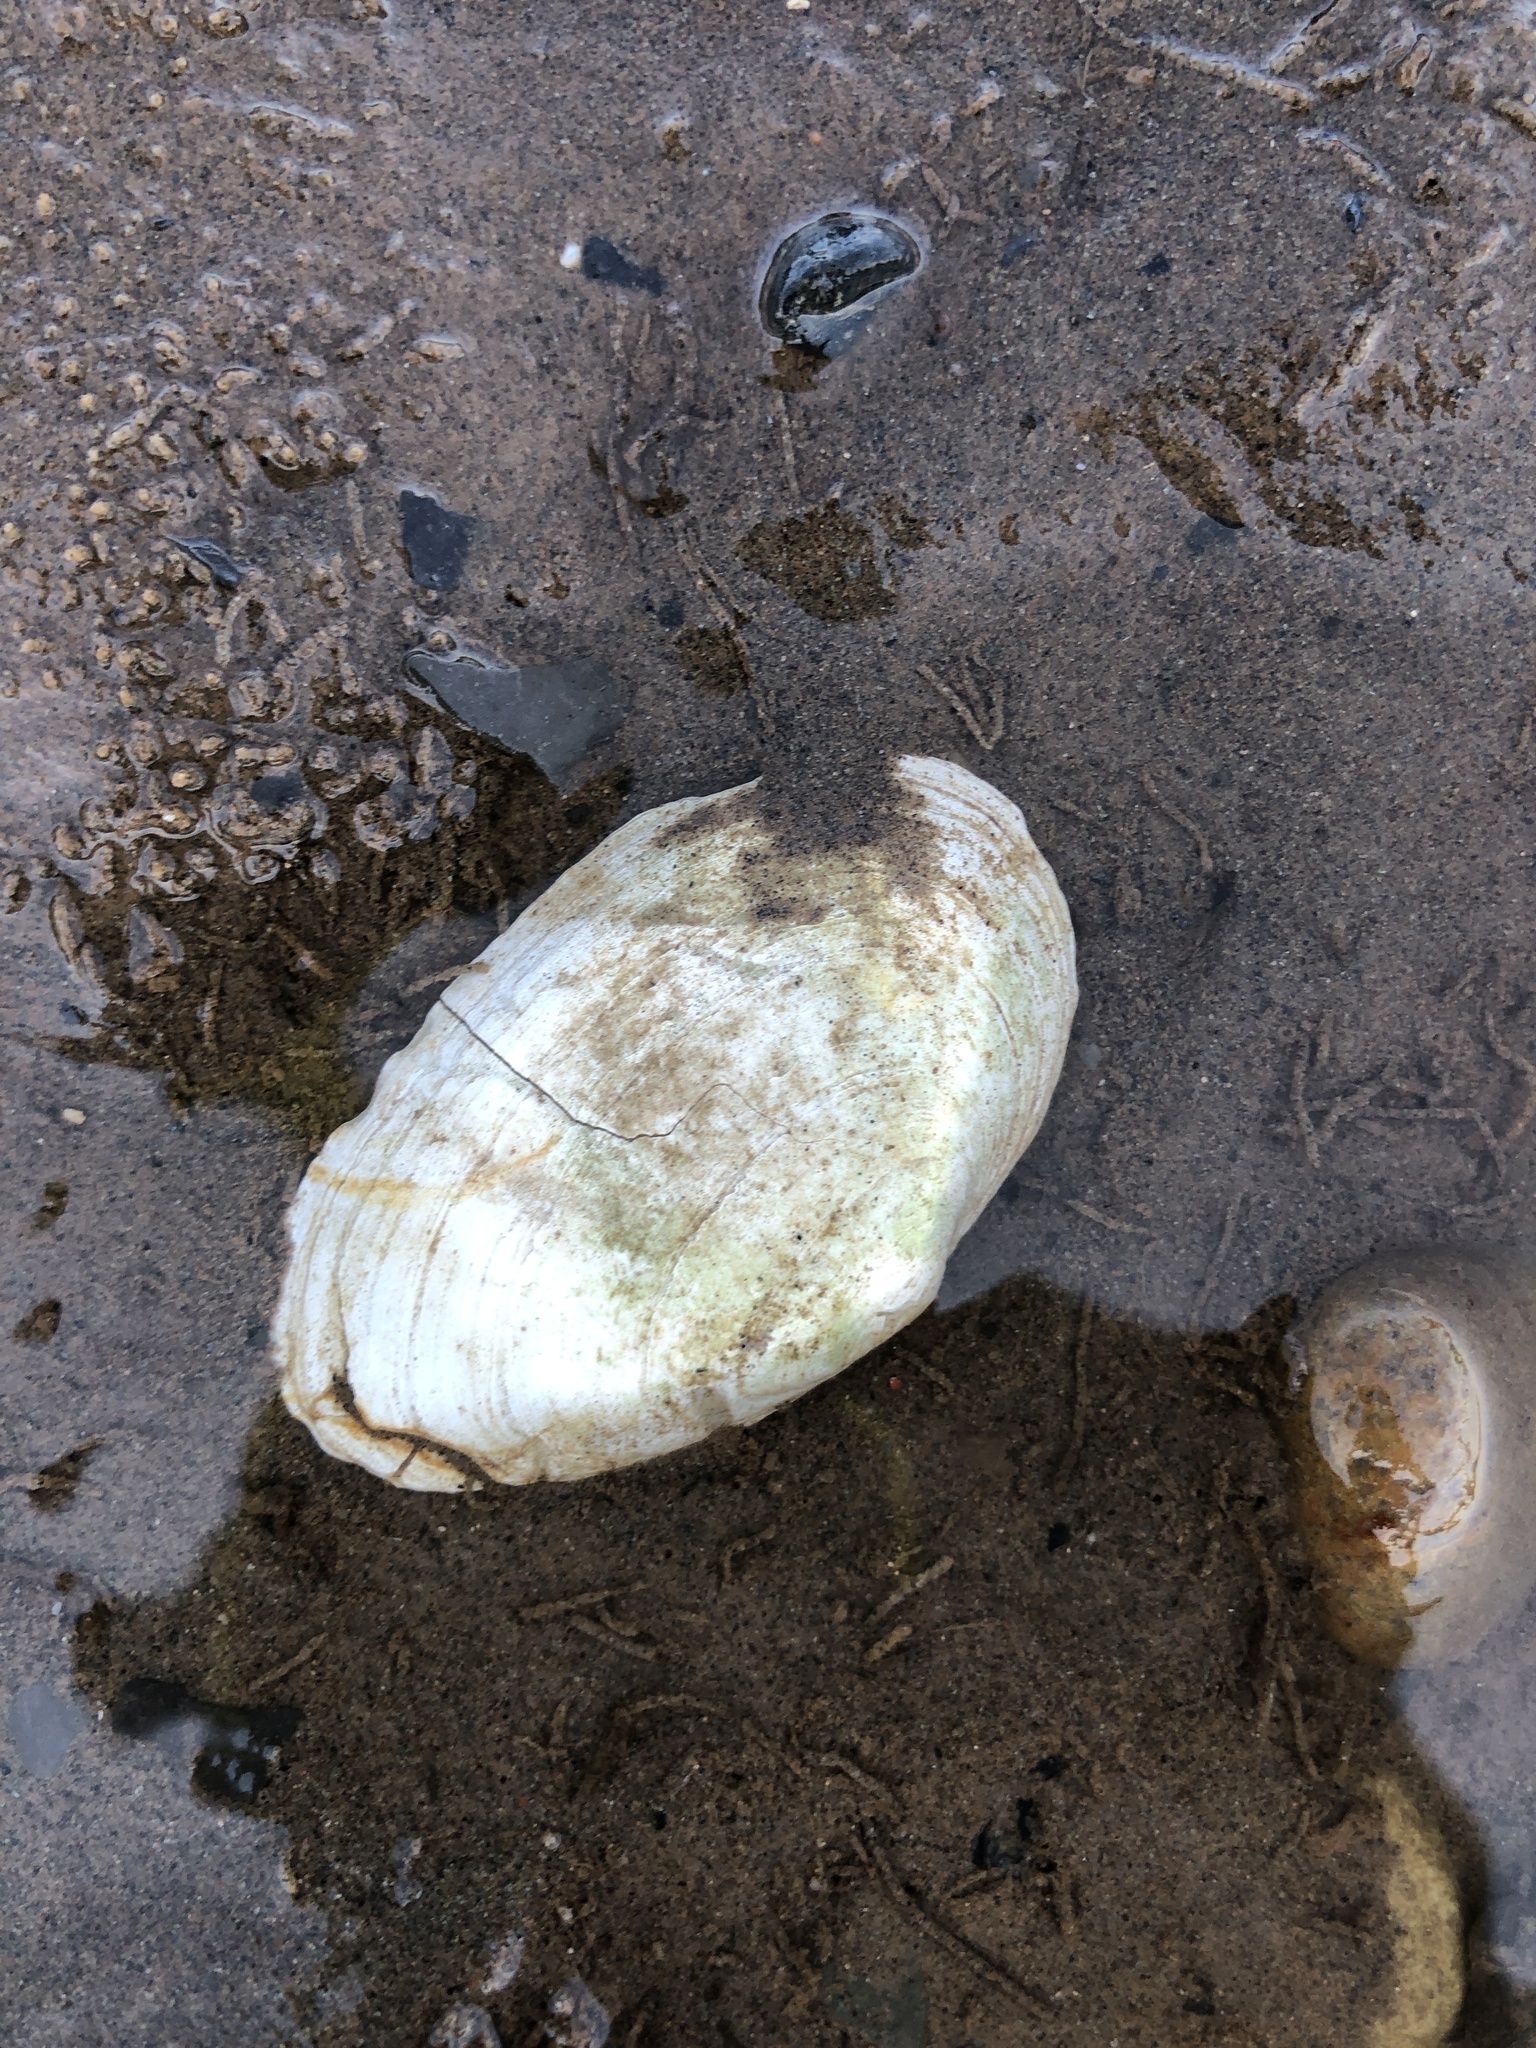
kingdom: Animalia
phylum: Mollusca
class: Bivalvia
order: Myida
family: Myidae
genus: Mya
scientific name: Mya arenaria
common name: Soft-shelled clam
